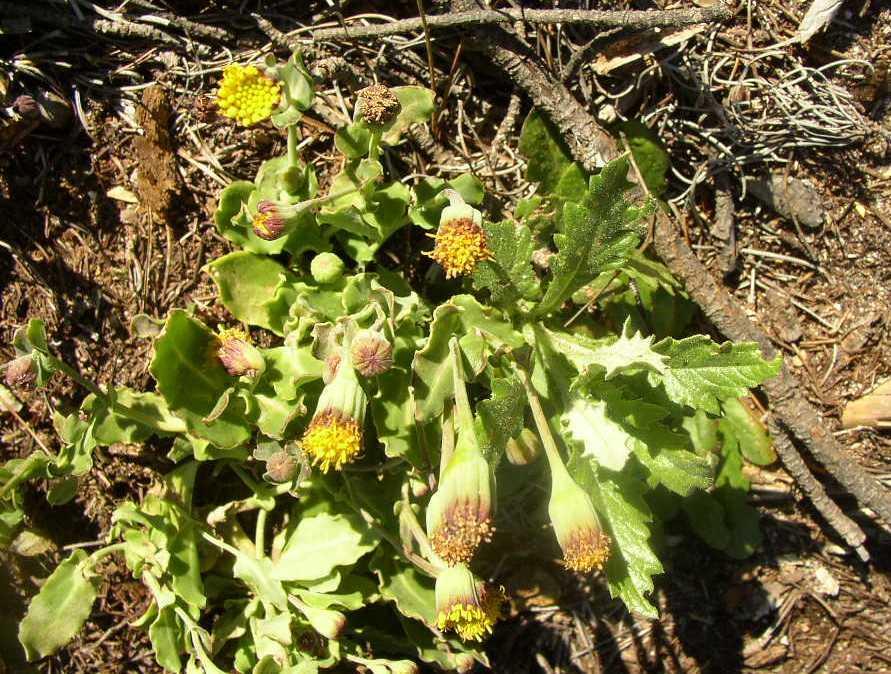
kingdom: Plantae
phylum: Tracheophyta
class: Magnoliopsida
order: Asterales
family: Asteraceae
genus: Othonna
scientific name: Othonna undulosa
